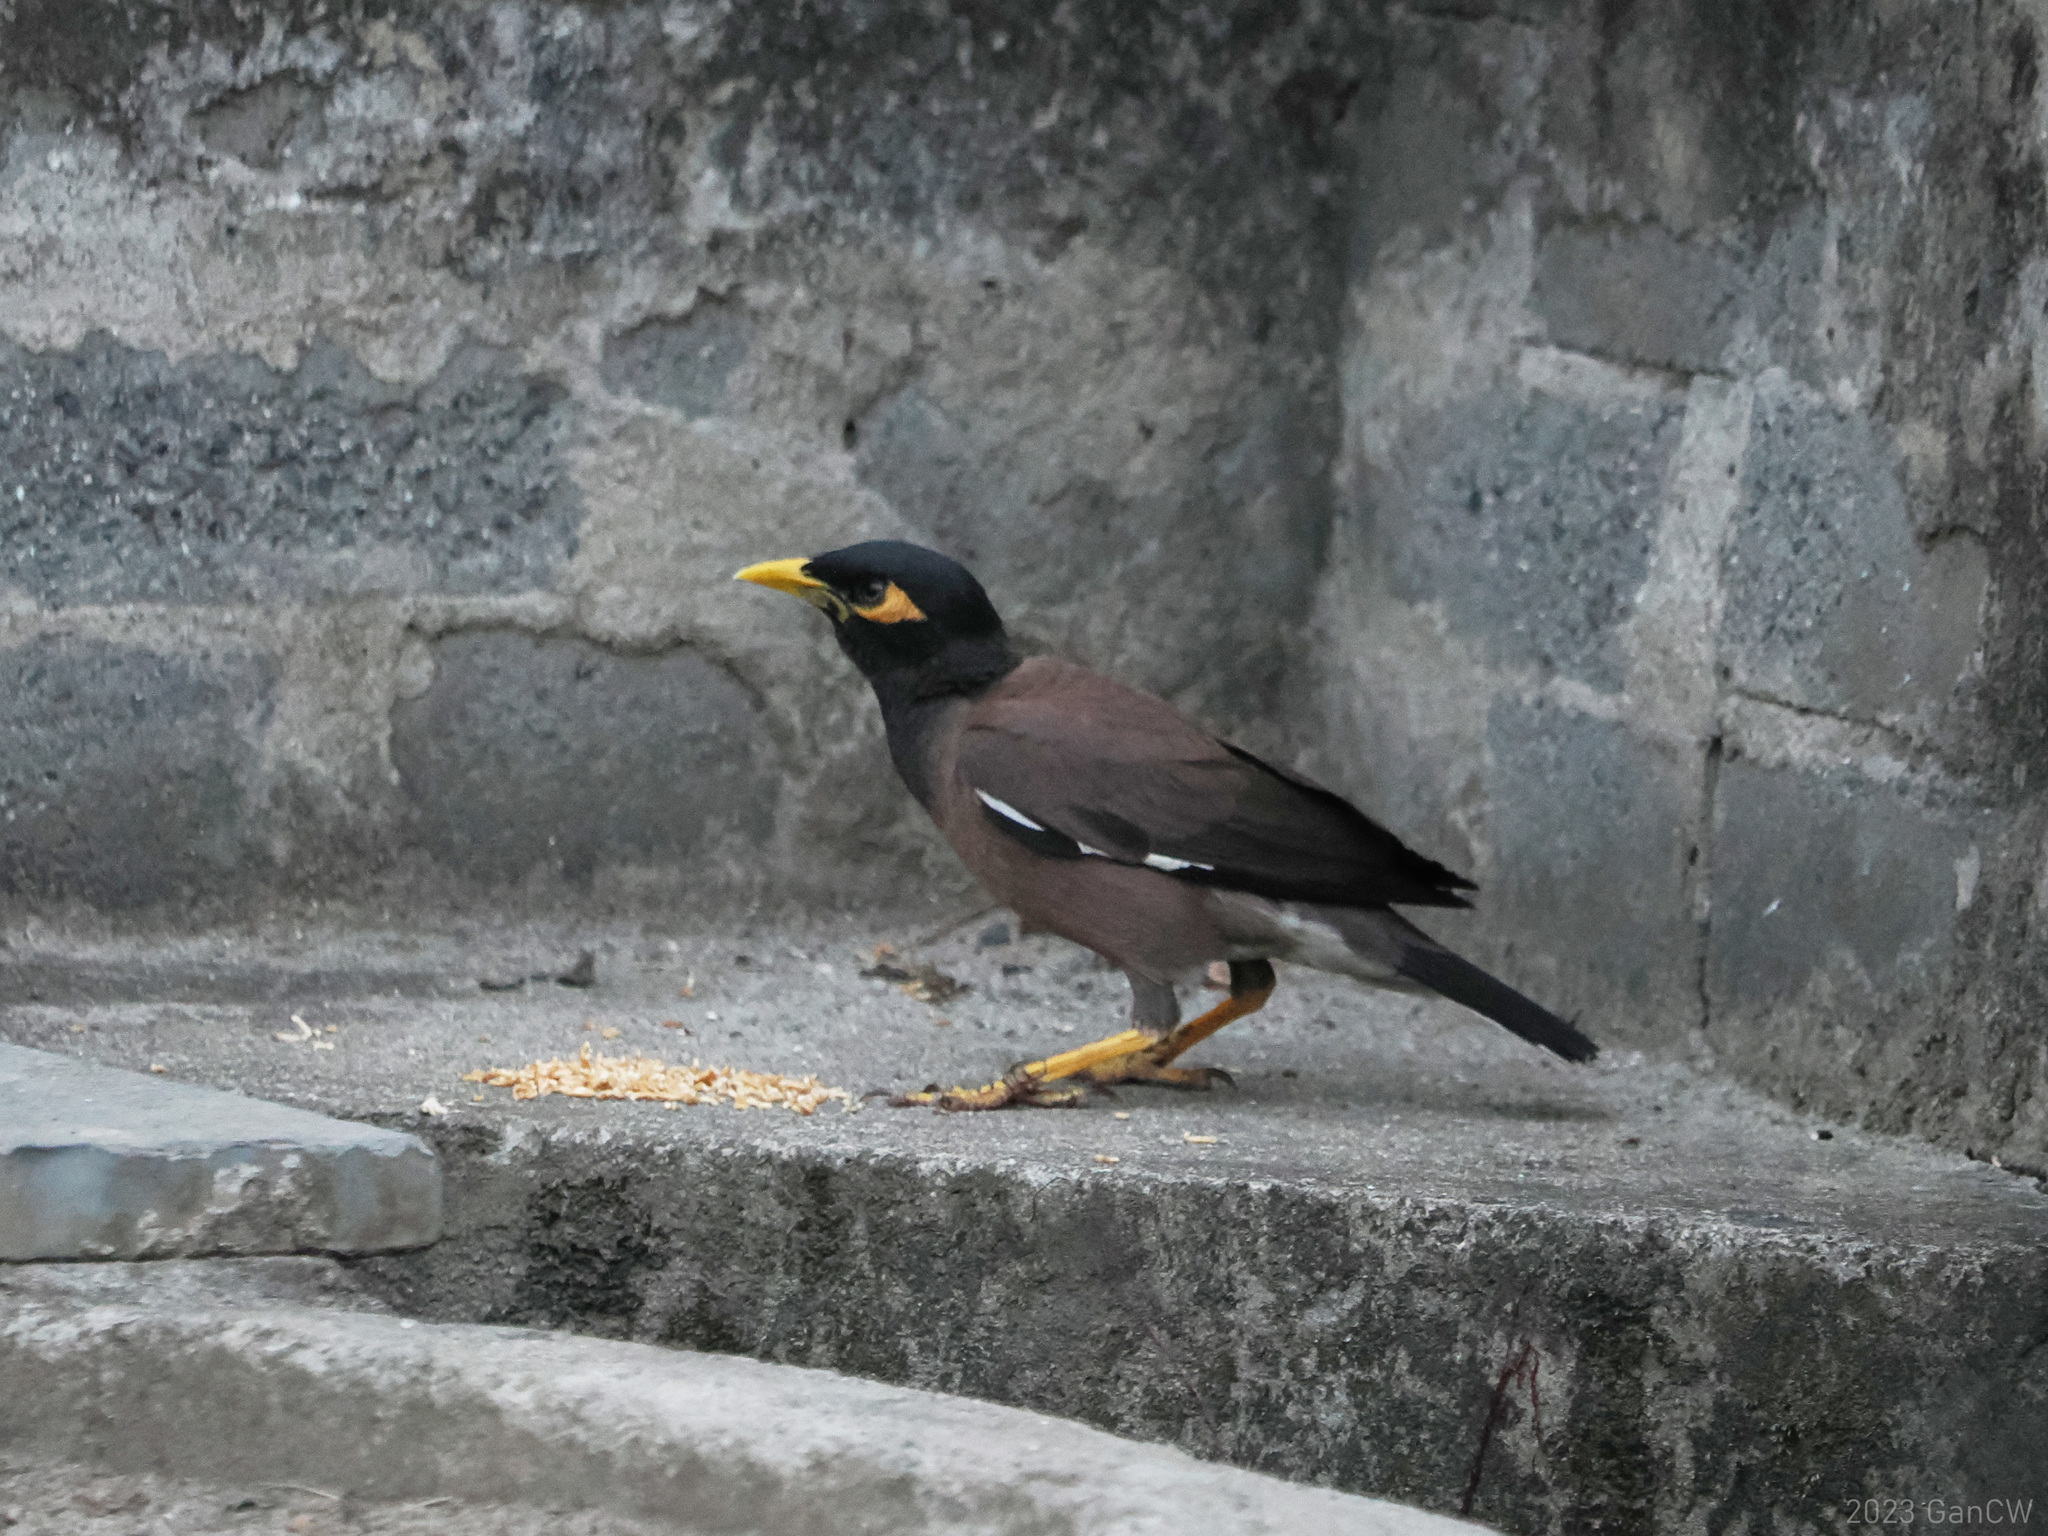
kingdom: Animalia
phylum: Chordata
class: Aves
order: Passeriformes
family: Sturnidae
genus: Acridotheres
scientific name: Acridotheres tristis
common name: Common myna
